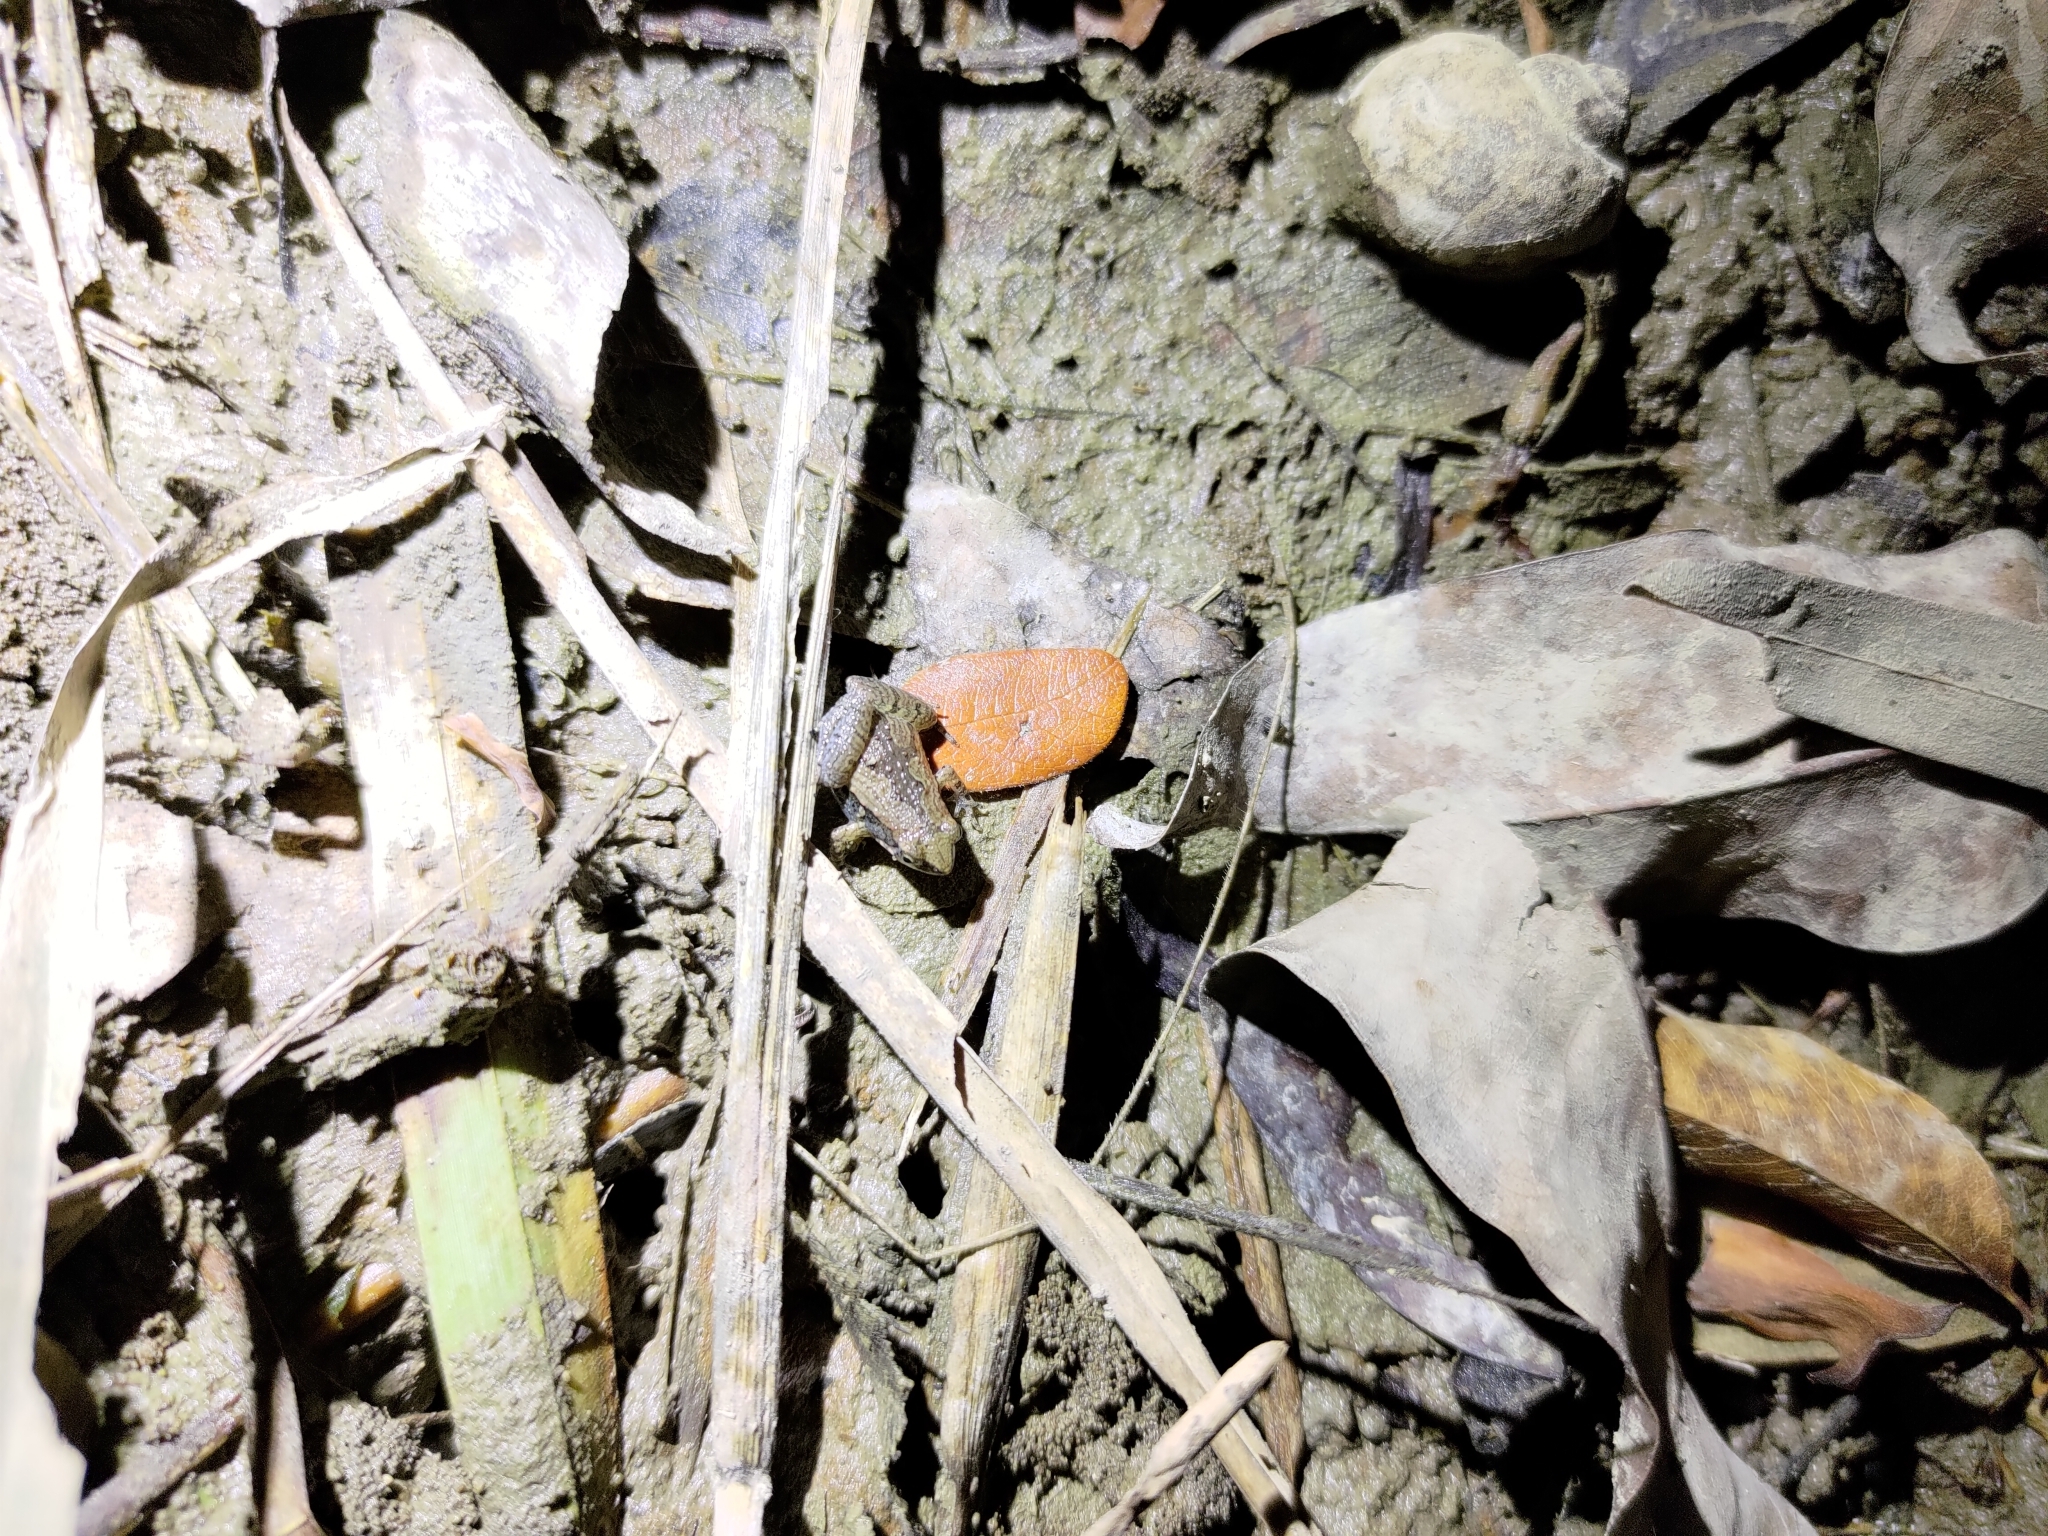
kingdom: Animalia
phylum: Chordata
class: Amphibia
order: Anura
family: Microhylidae
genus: Microhyla
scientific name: Microhyla fissipes
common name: Ornate narrow-mouthed frog
